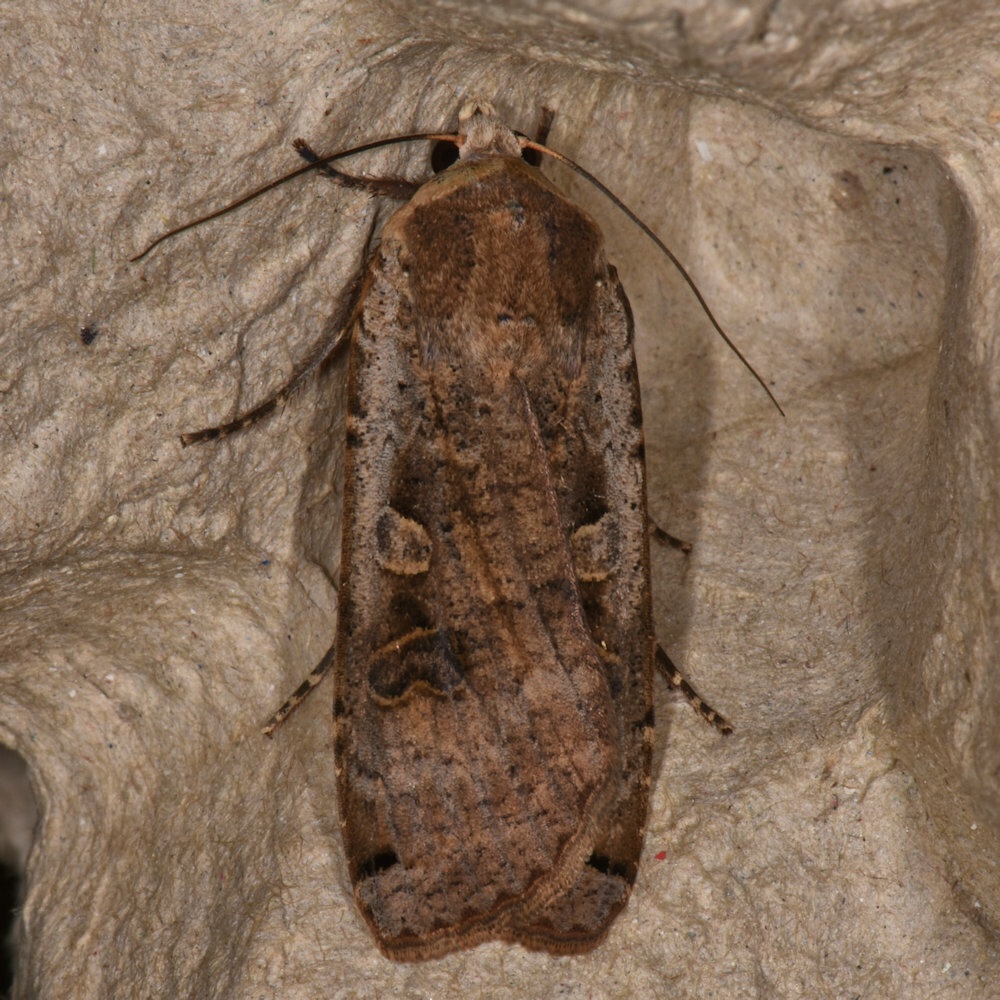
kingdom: Animalia
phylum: Arthropoda
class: Insecta
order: Lepidoptera
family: Noctuidae
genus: Noctua
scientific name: Noctua pronuba
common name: Large yellow underwing
